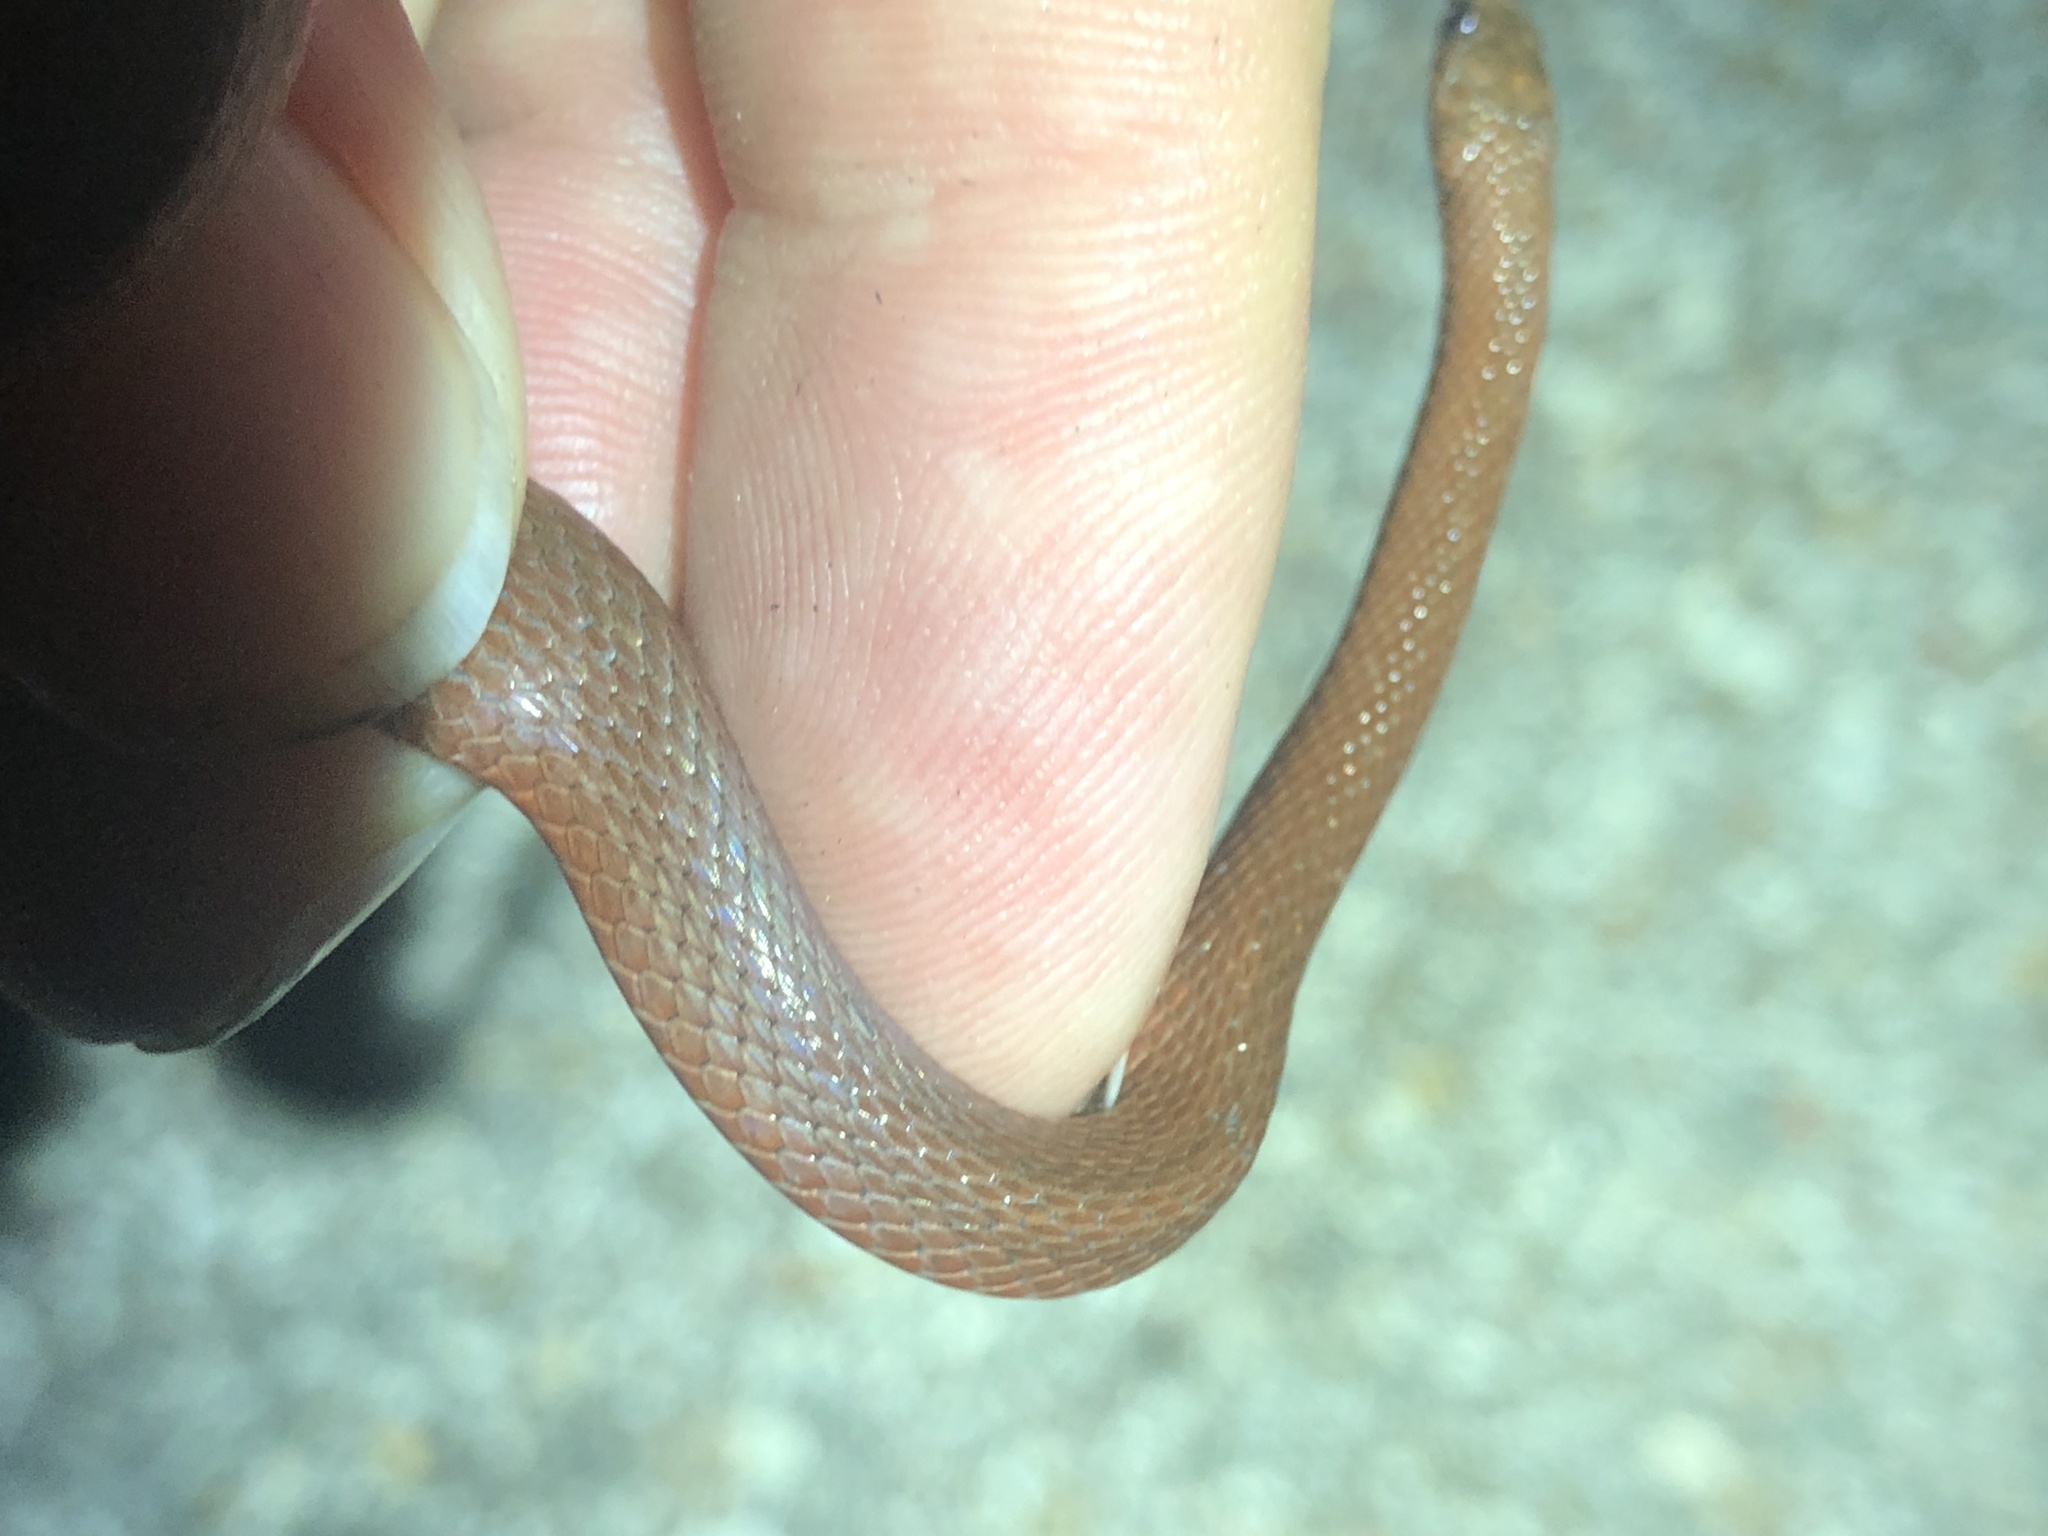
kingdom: Animalia
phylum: Chordata
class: Squamata
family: Colubridae
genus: Haldea
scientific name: Haldea striatula
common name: Rough earth snake
